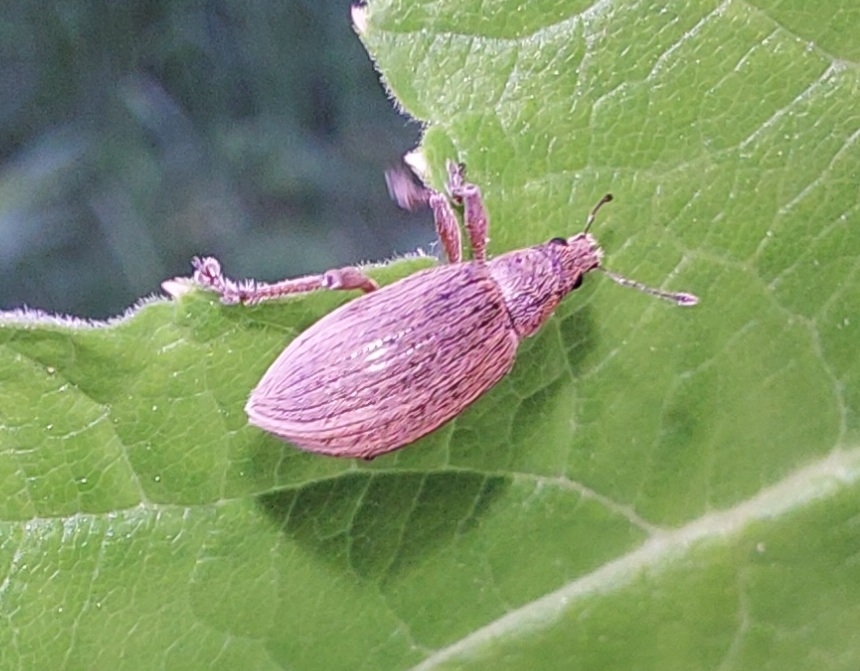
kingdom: Animalia
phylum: Arthropoda
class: Insecta
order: Coleoptera
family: Curculionidae
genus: Polydrusus
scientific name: Polydrusus mollis
